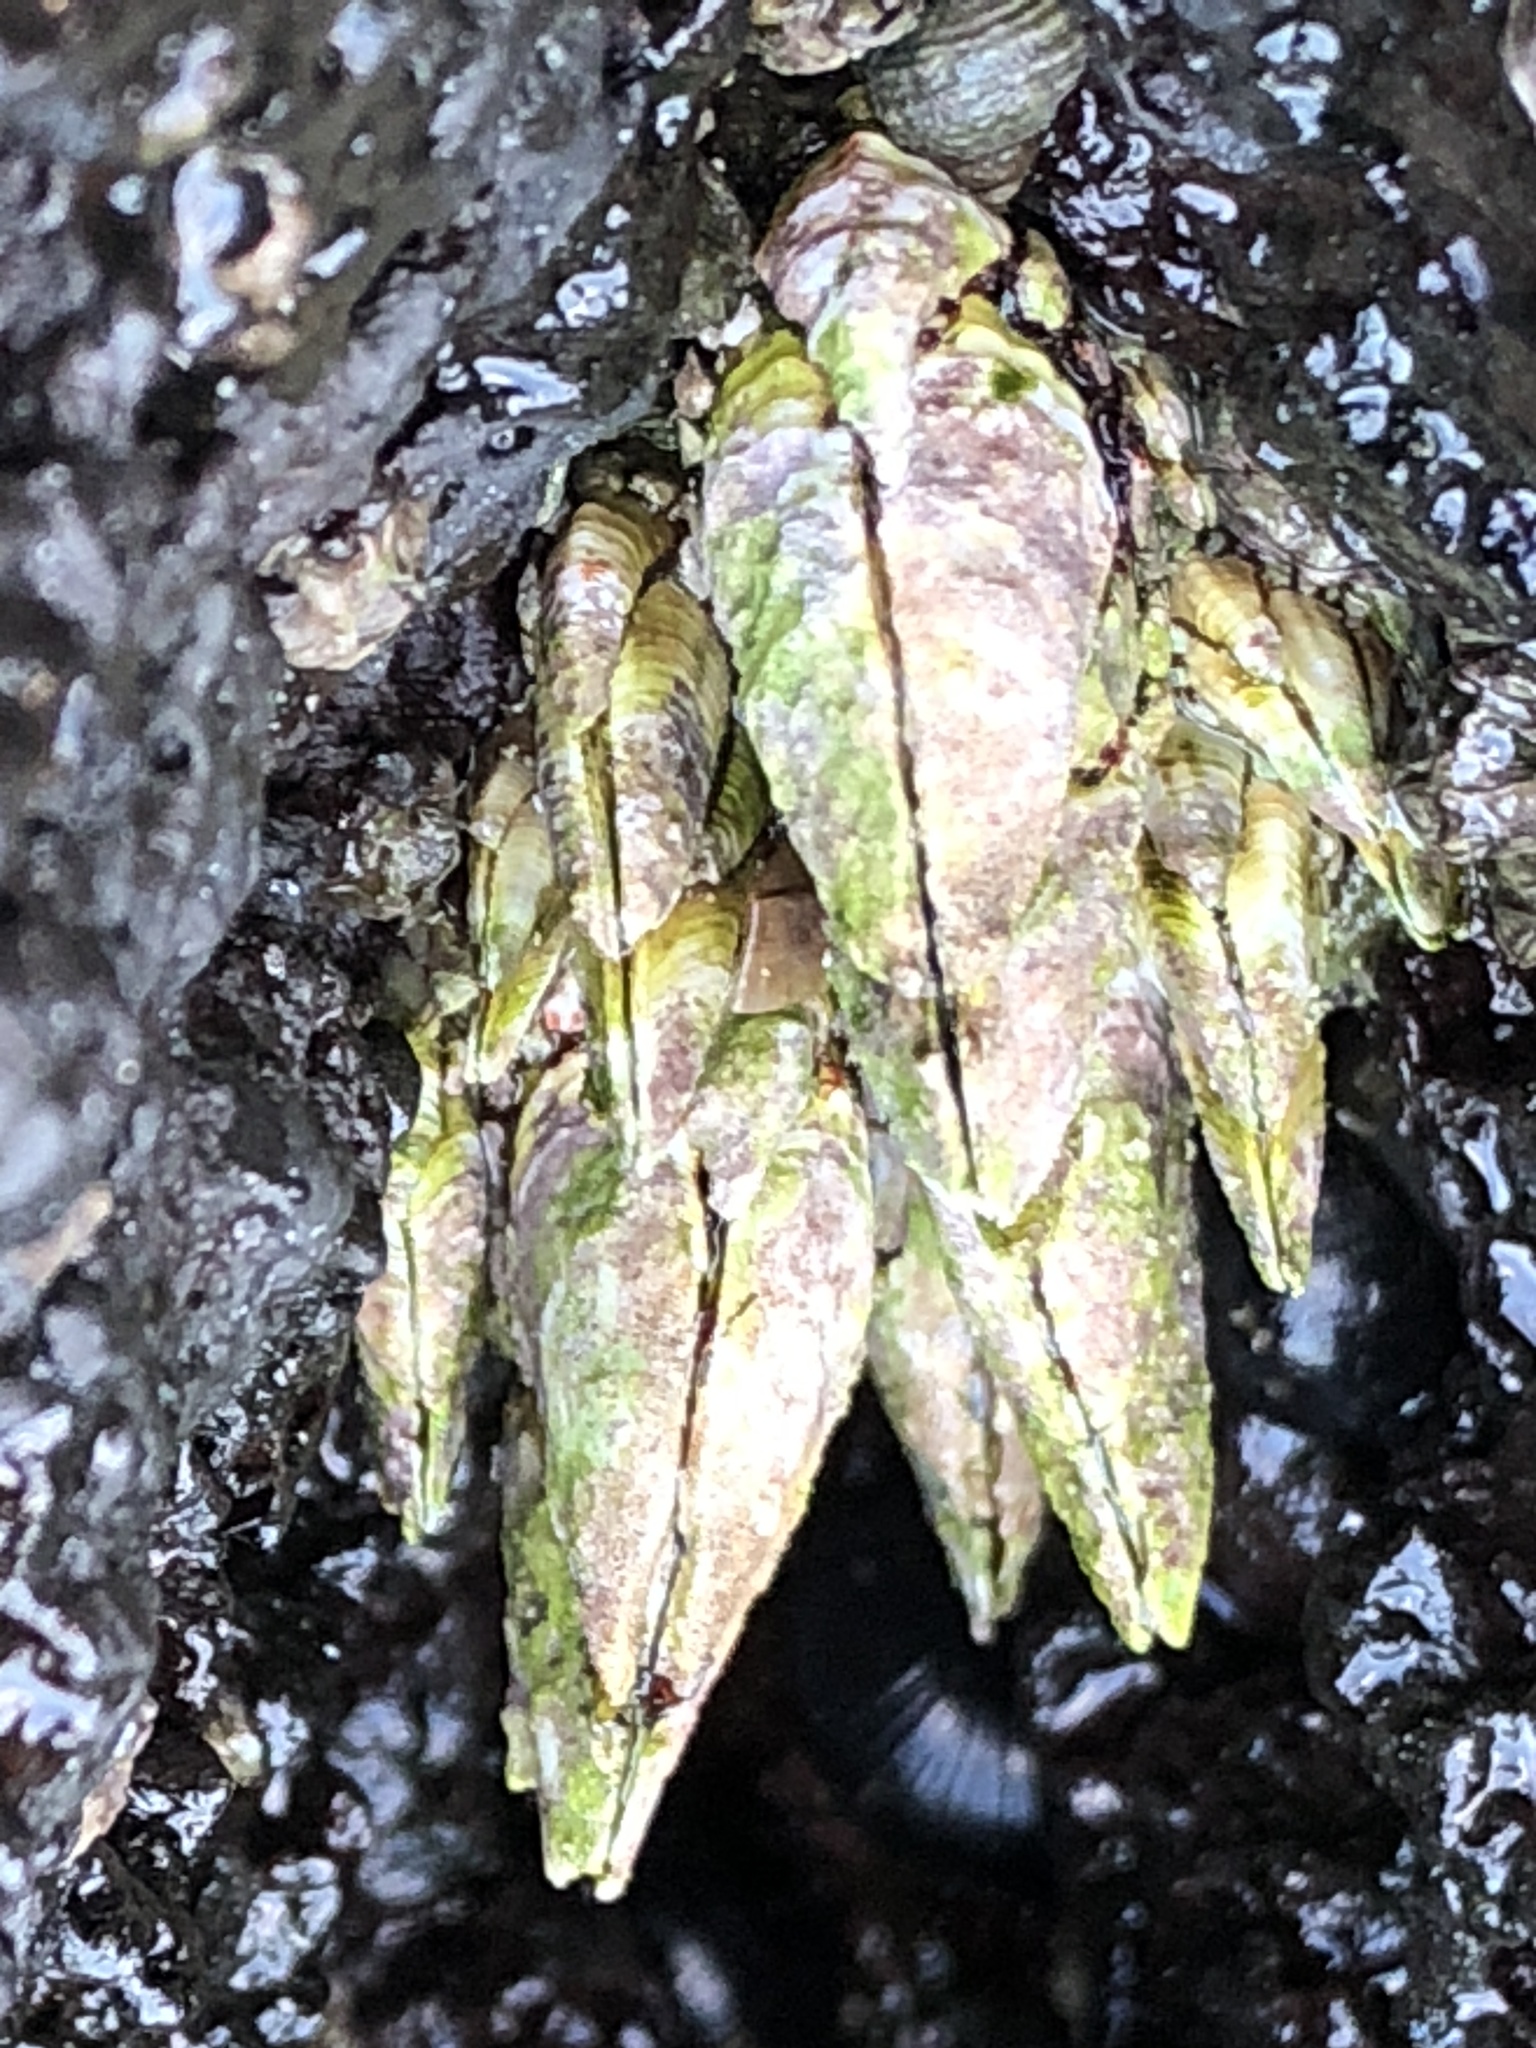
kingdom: Animalia
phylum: Arthropoda
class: Maxillopoda
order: Pedunculata
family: Pollicipedidae
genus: Capitulum
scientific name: Capitulum mitella
